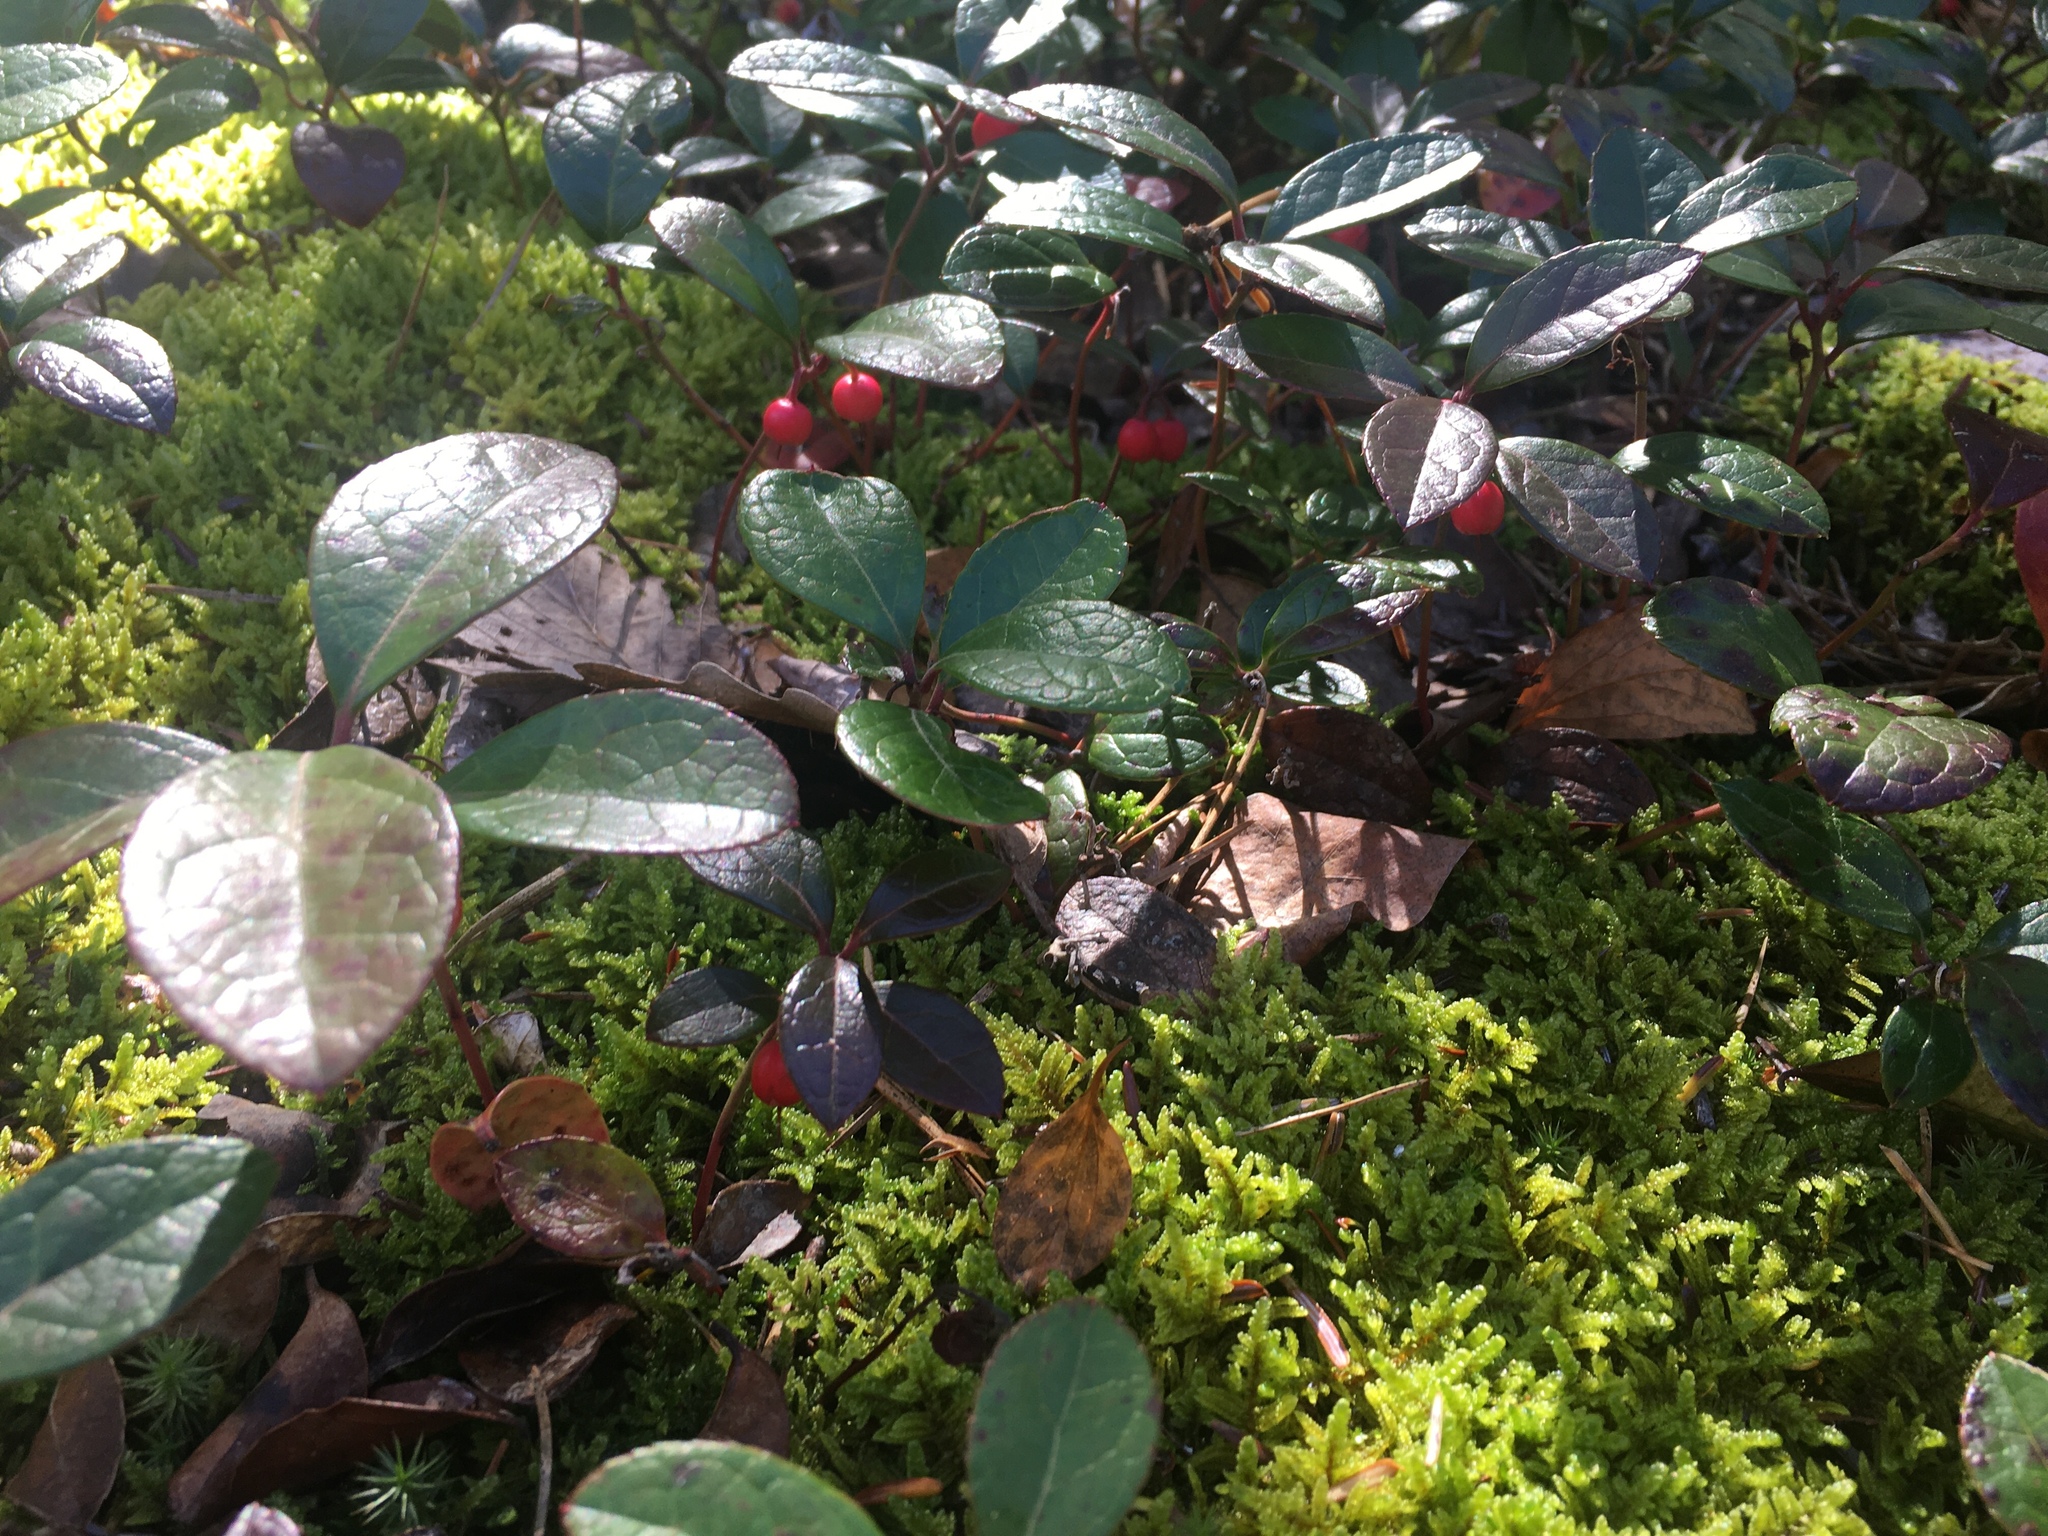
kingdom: Plantae
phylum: Tracheophyta
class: Magnoliopsida
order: Ericales
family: Ericaceae
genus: Gaultheria
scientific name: Gaultheria procumbens
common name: Checkerberry
